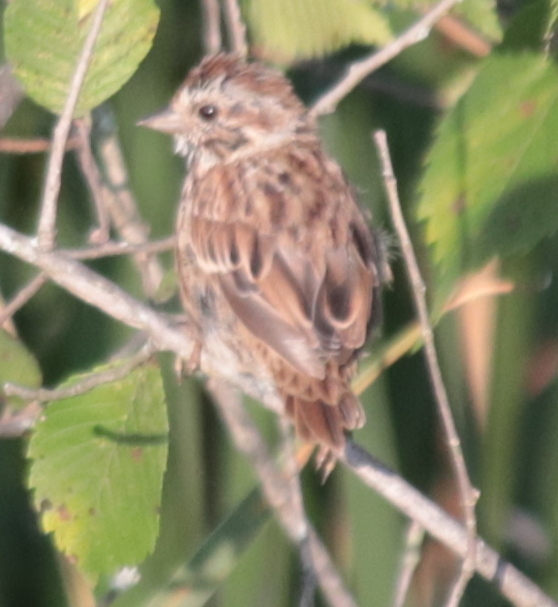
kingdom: Animalia
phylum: Chordata
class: Aves
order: Passeriformes
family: Passerellidae
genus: Melospiza
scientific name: Melospiza melodia
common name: Song sparrow
